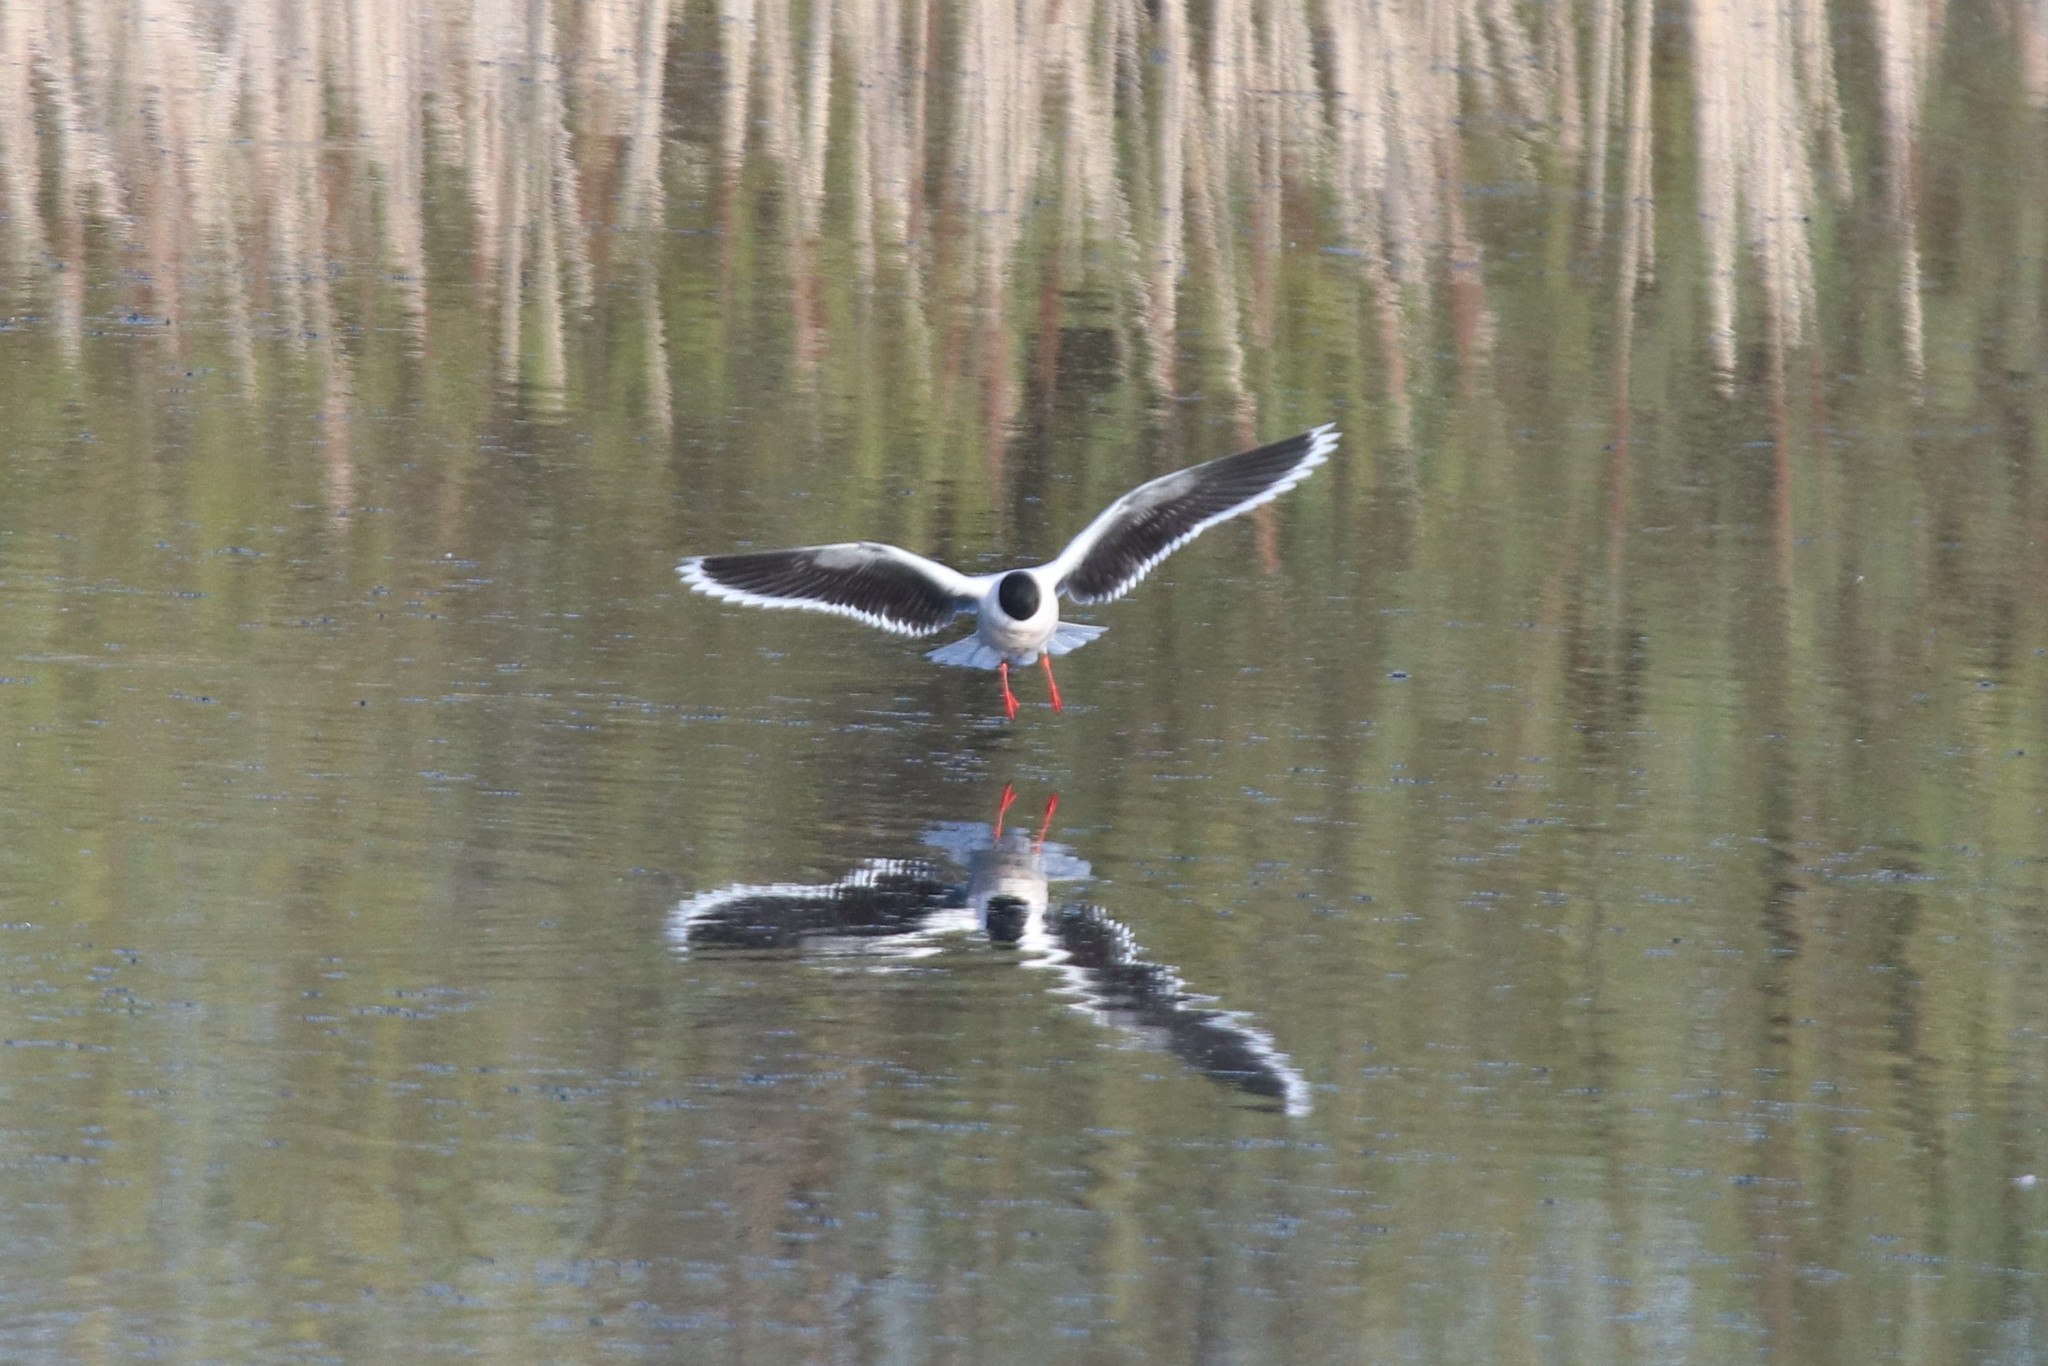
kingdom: Animalia
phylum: Chordata
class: Aves
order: Charadriiformes
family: Laridae
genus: Hydrocoloeus
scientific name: Hydrocoloeus minutus
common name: Little gull
